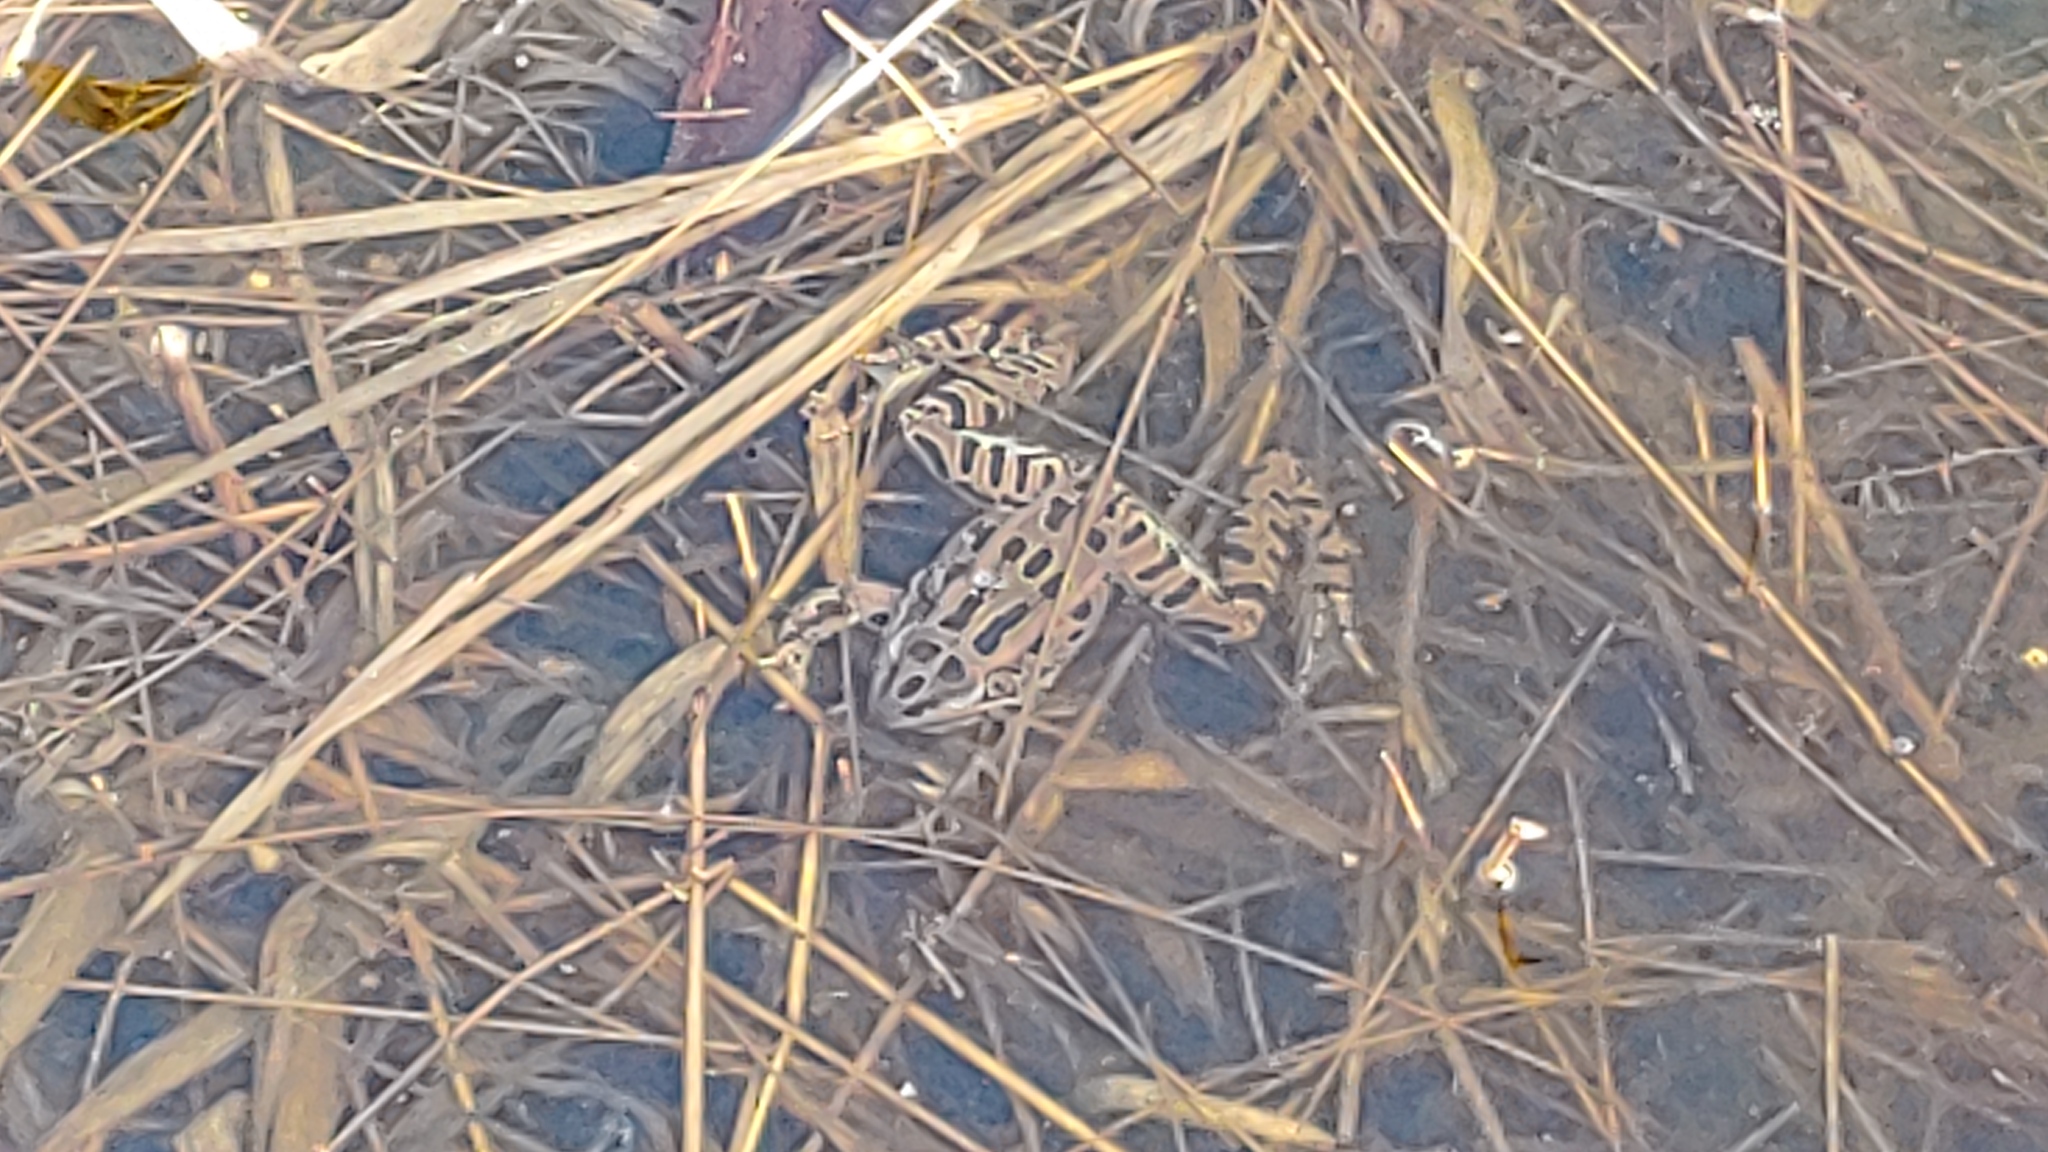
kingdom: Animalia
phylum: Chordata
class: Amphibia
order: Anura
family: Ranidae
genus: Lithobates
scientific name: Lithobates pipiens
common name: Northern leopard frog
